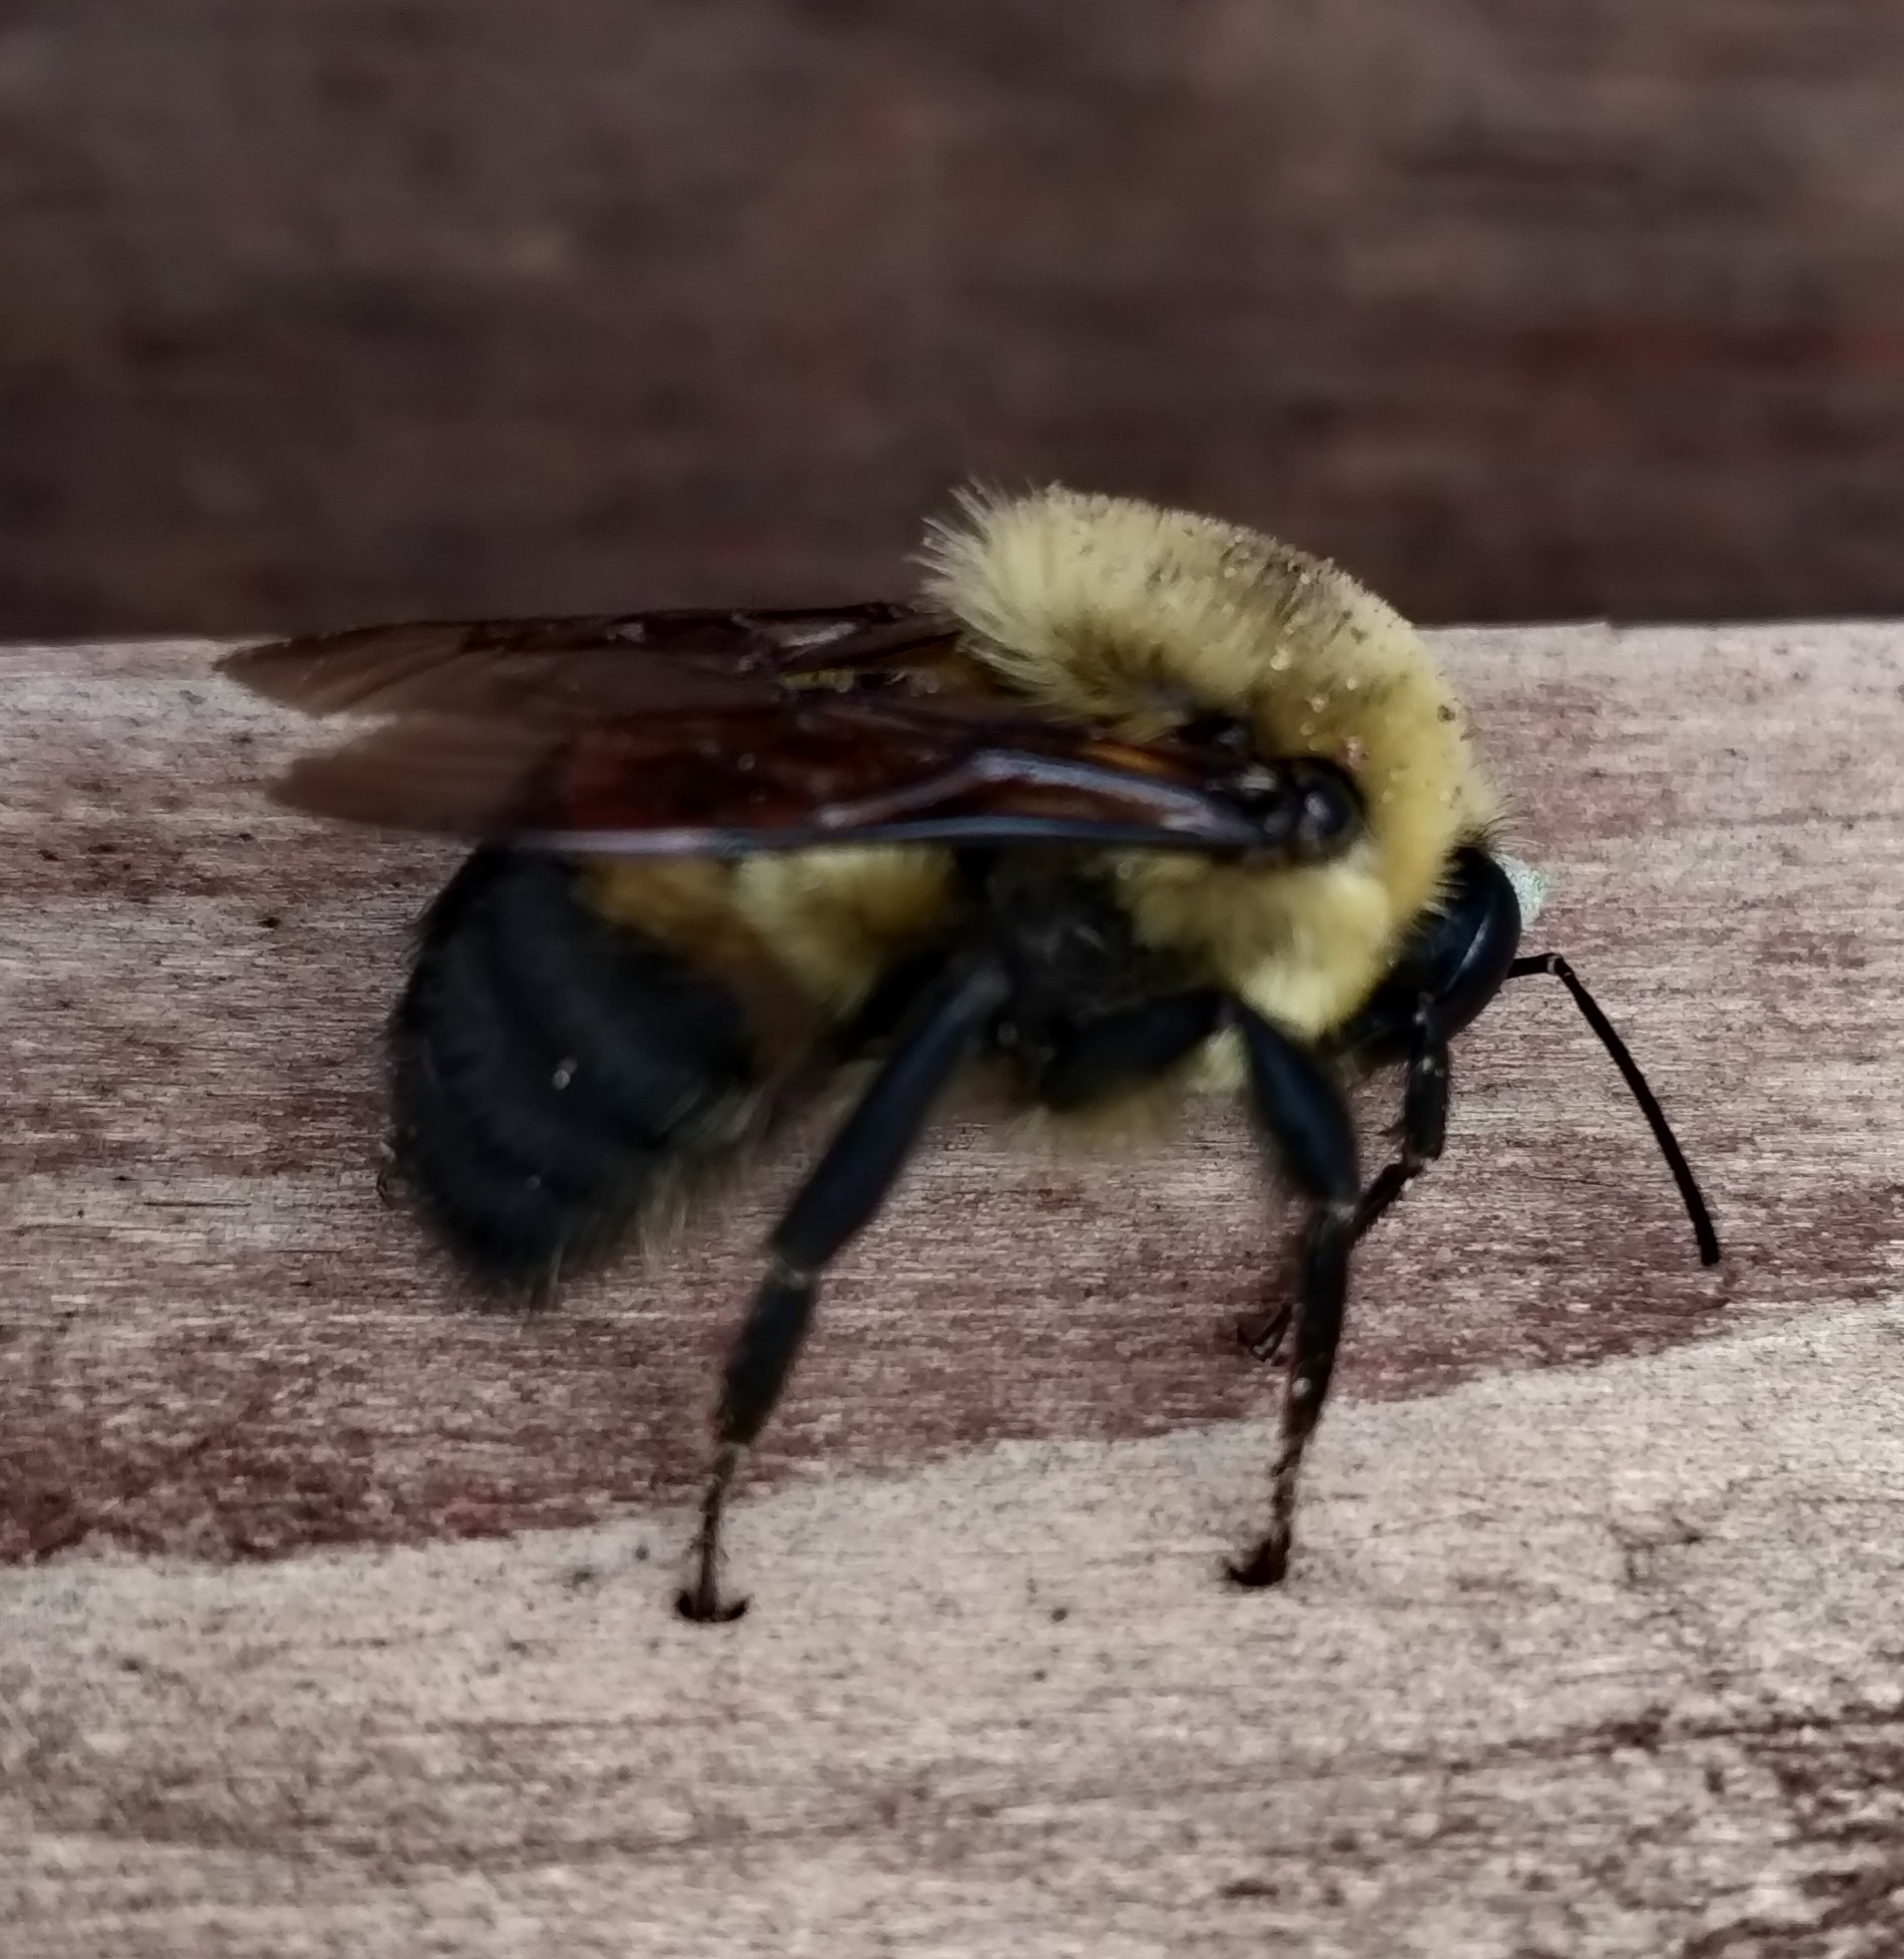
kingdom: Animalia
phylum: Arthropoda
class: Insecta
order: Hymenoptera
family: Apidae
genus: Bombus
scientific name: Bombus griseocollis
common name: Brown-belted bumble bee
